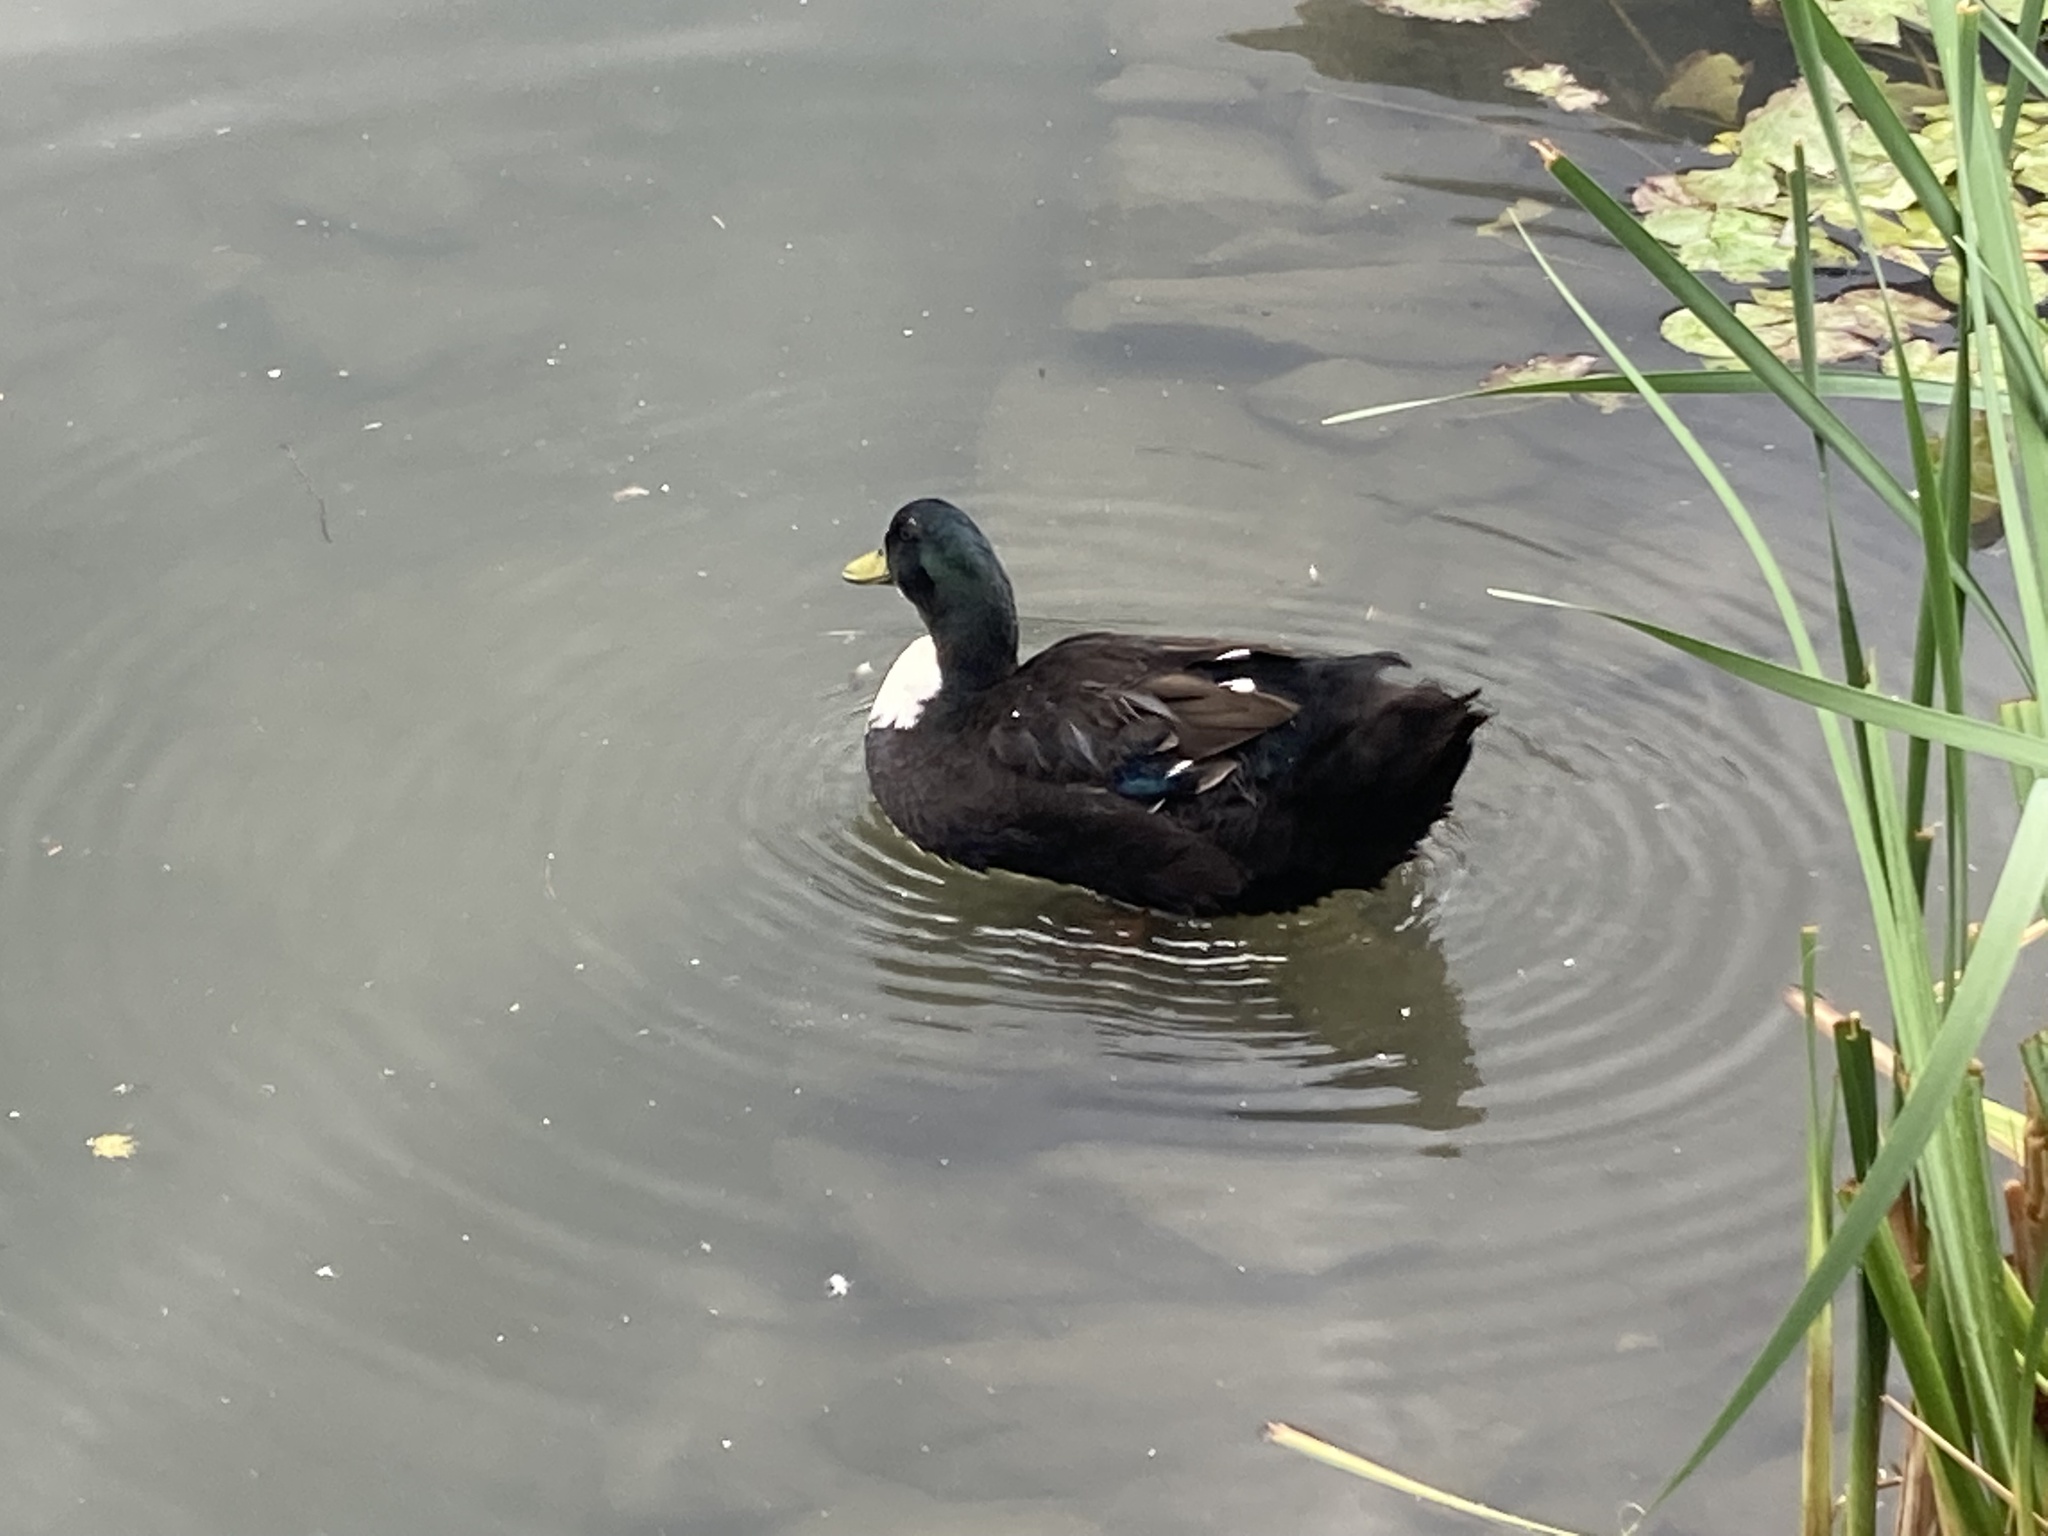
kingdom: Animalia
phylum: Chordata
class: Aves
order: Anseriformes
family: Anatidae
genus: Anas
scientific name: Anas platyrhynchos
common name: Mallard
